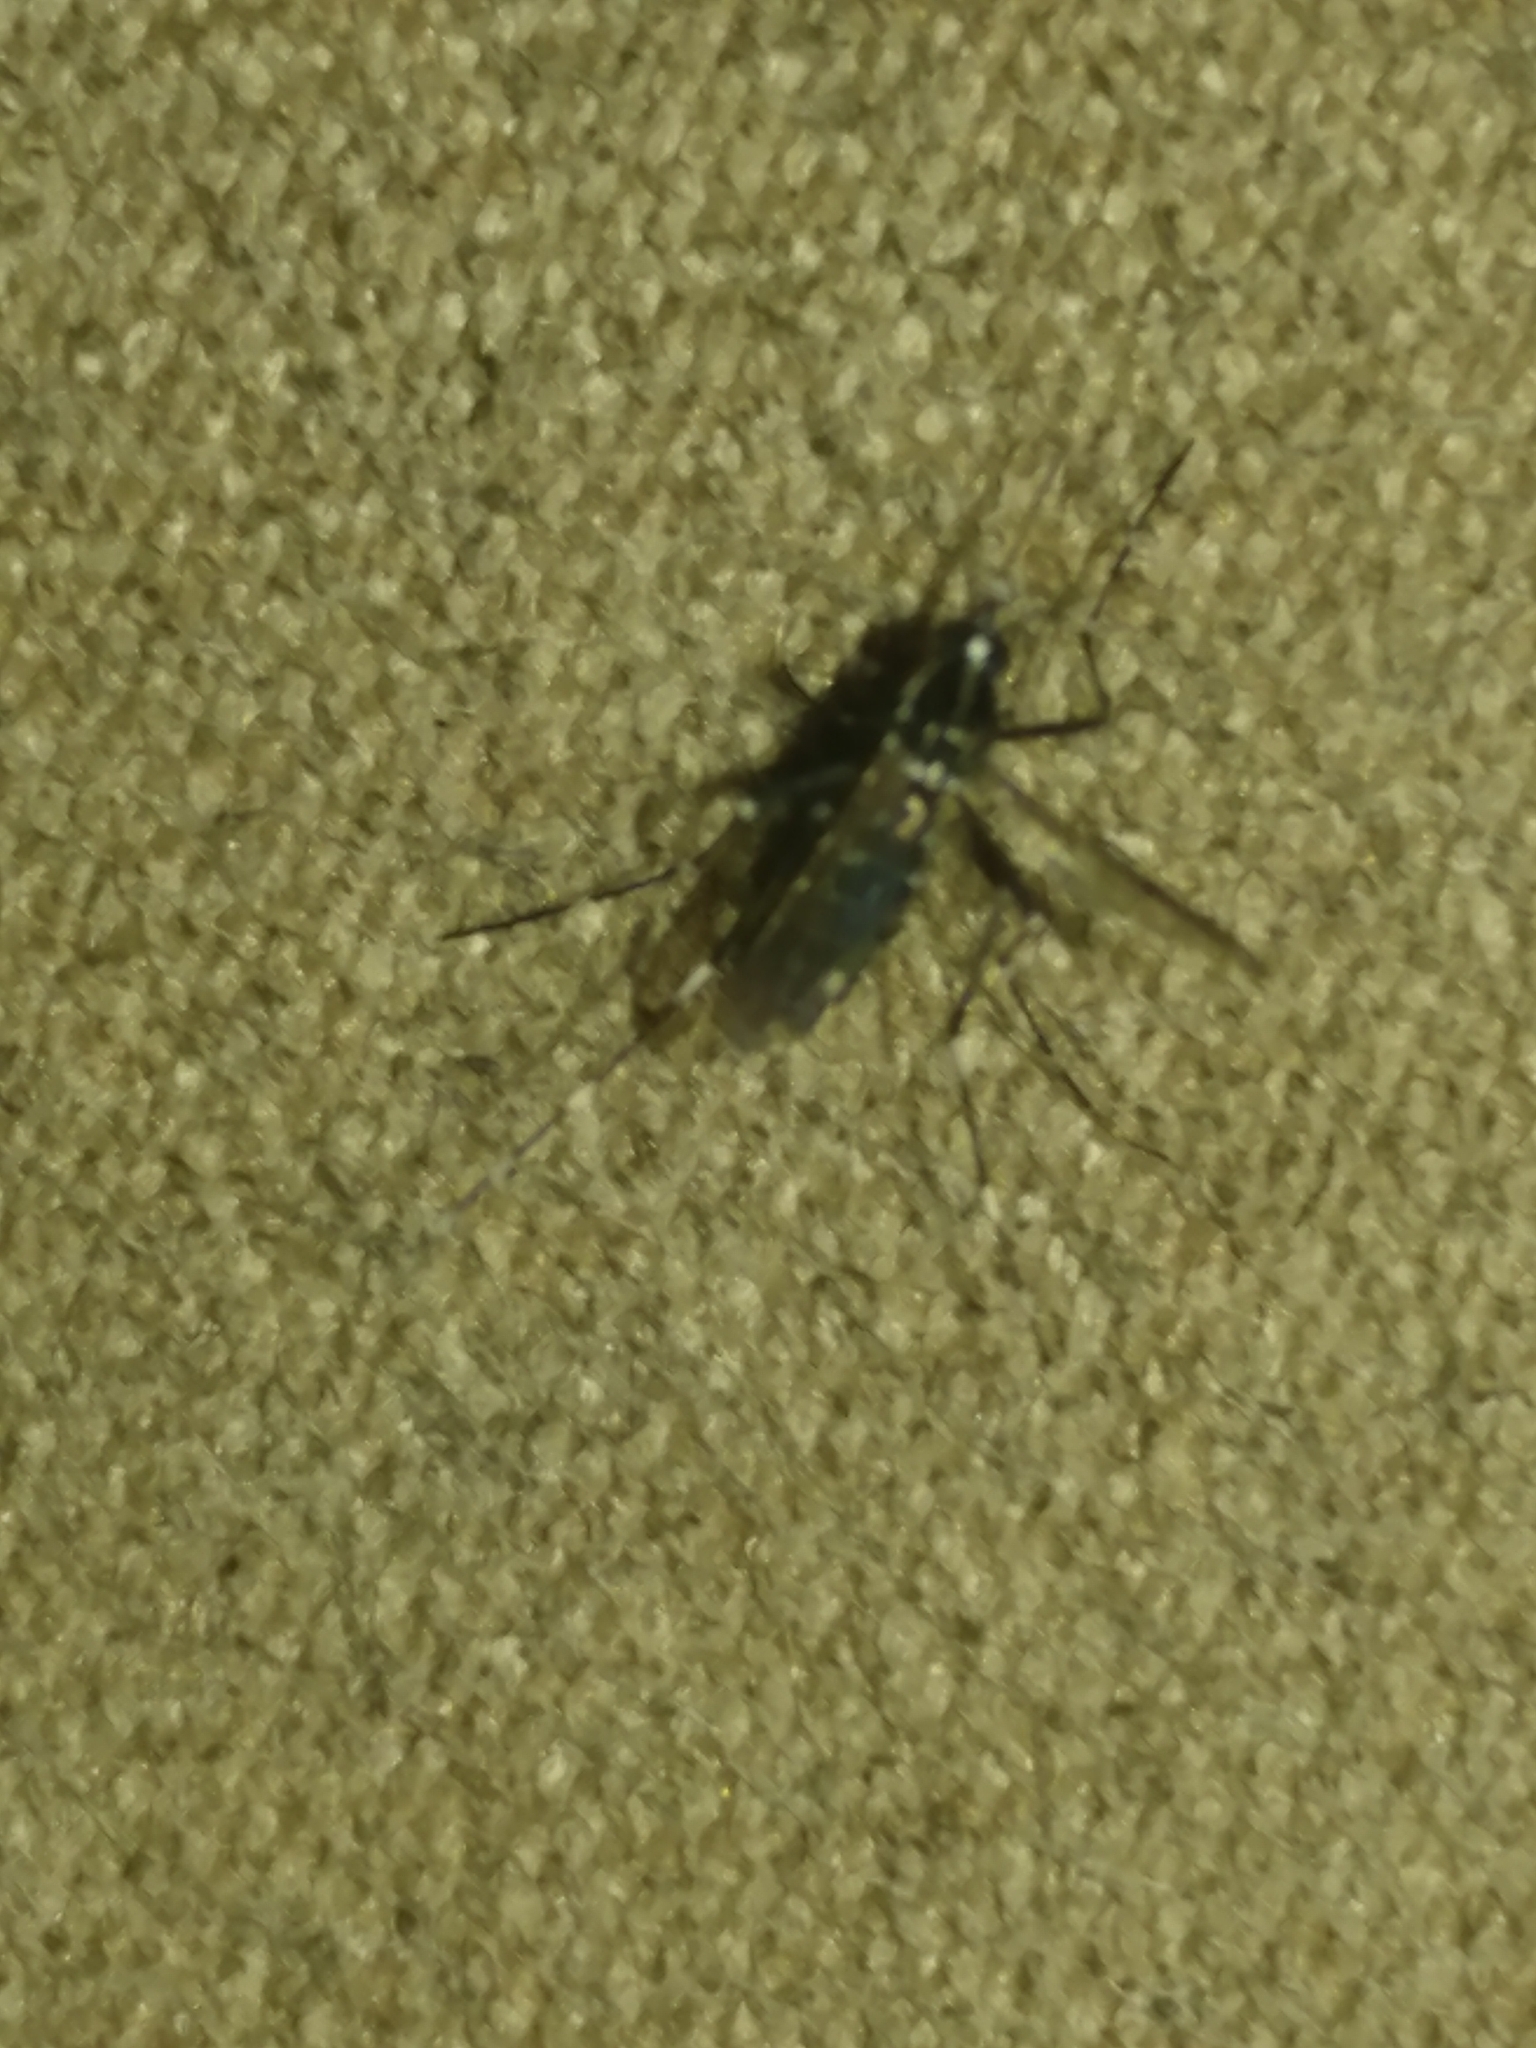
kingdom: Animalia
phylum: Arthropoda
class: Insecta
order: Diptera
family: Culicidae
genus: Aedes
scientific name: Aedes albopictus
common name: Tiger mosquito
